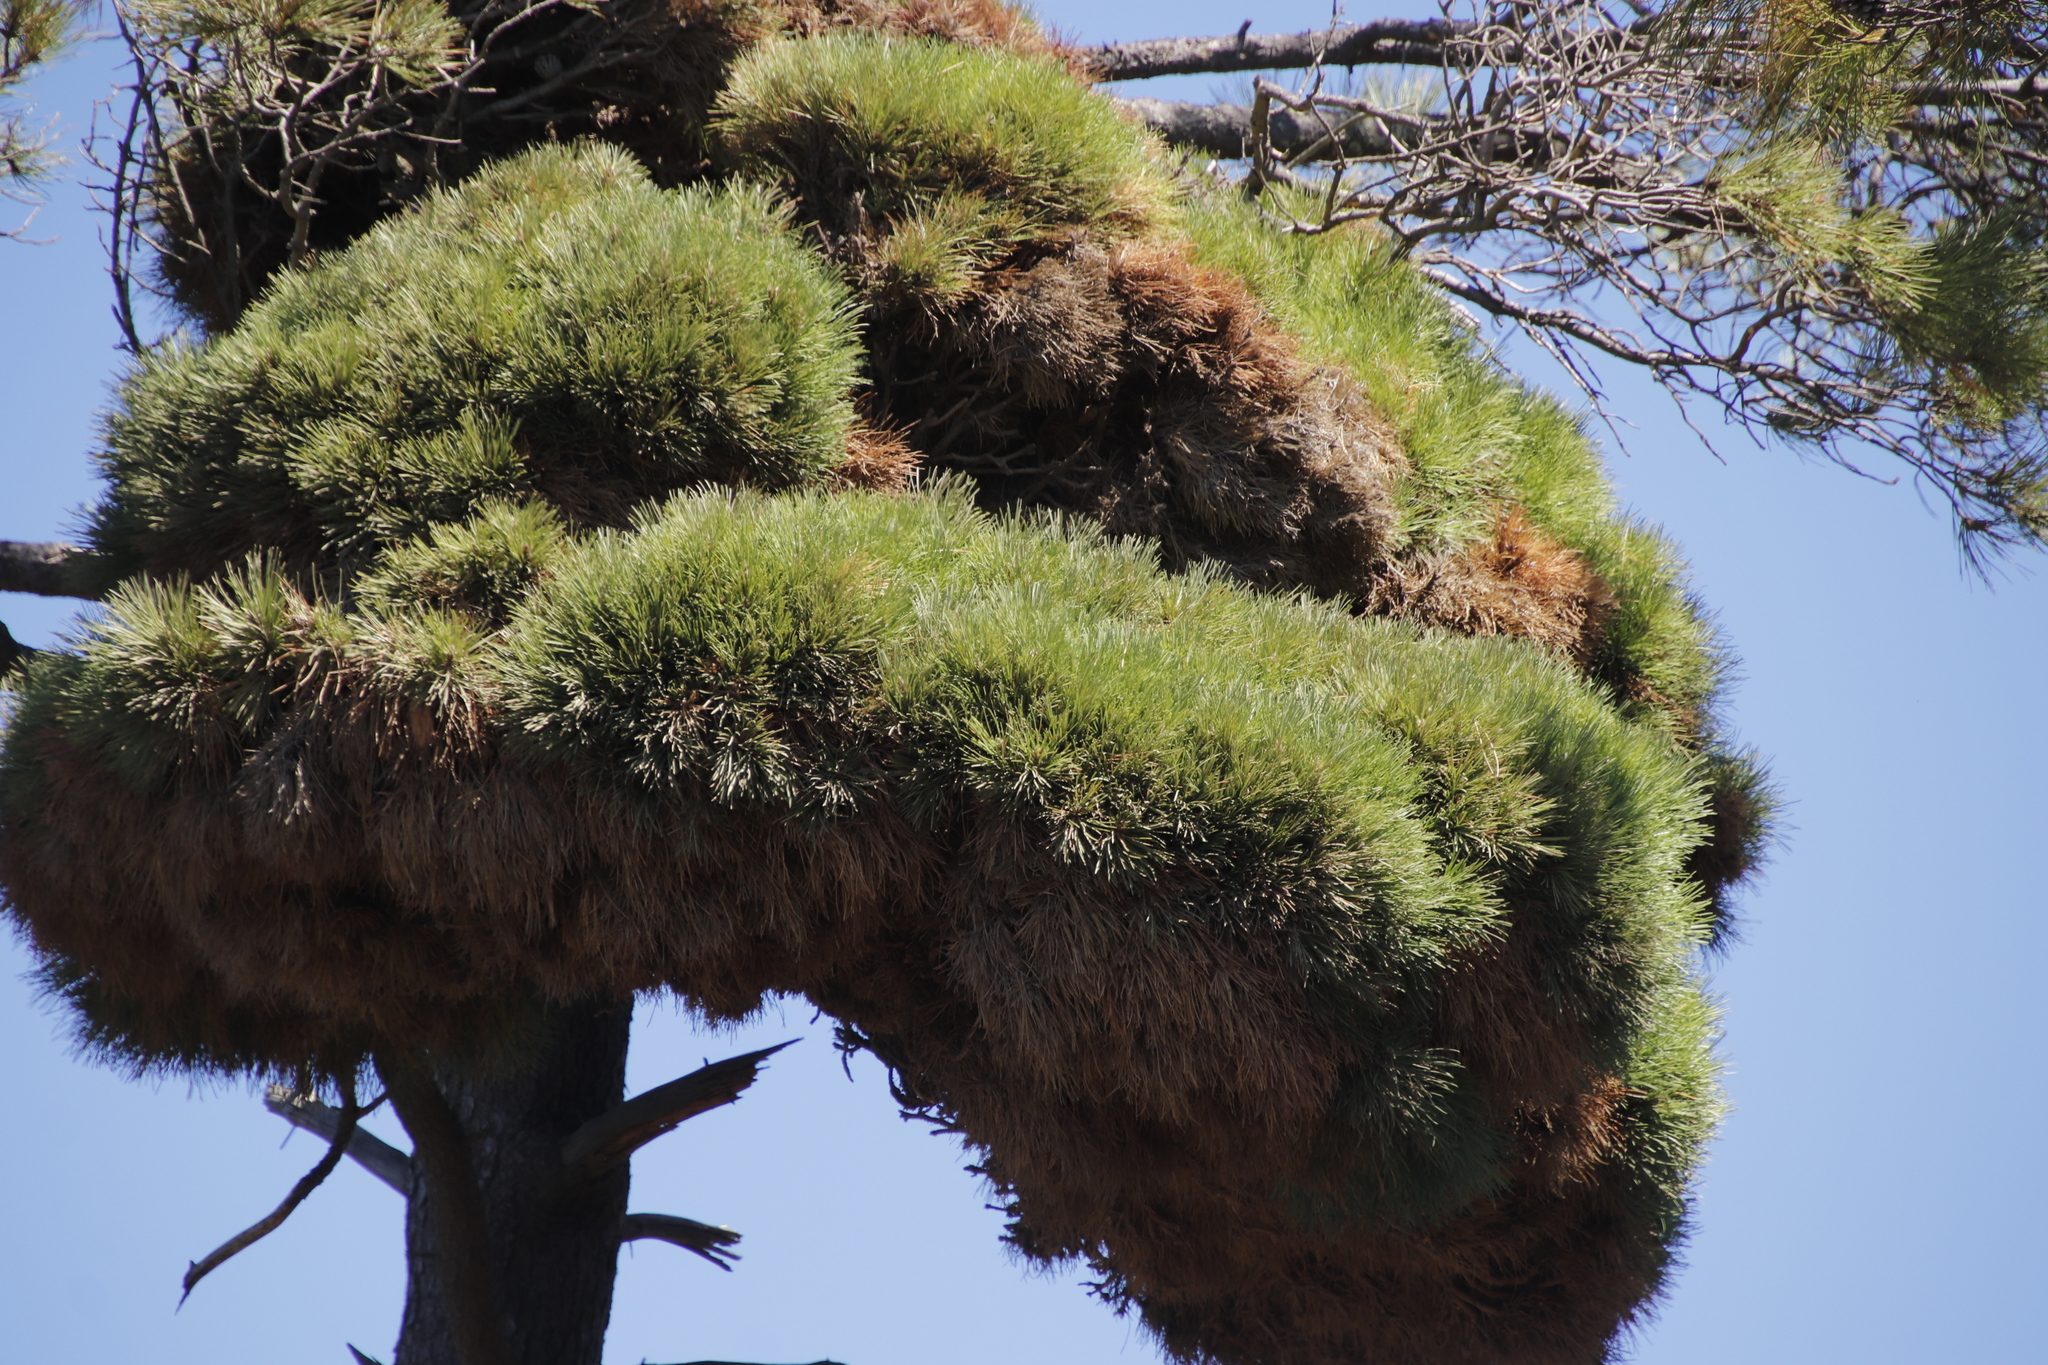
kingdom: Bacteria
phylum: Firmicutes
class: Bacilli
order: Acholeplasmatales
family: Acholeplasmataceae
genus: Phytoplasma
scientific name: Phytoplasma pini
